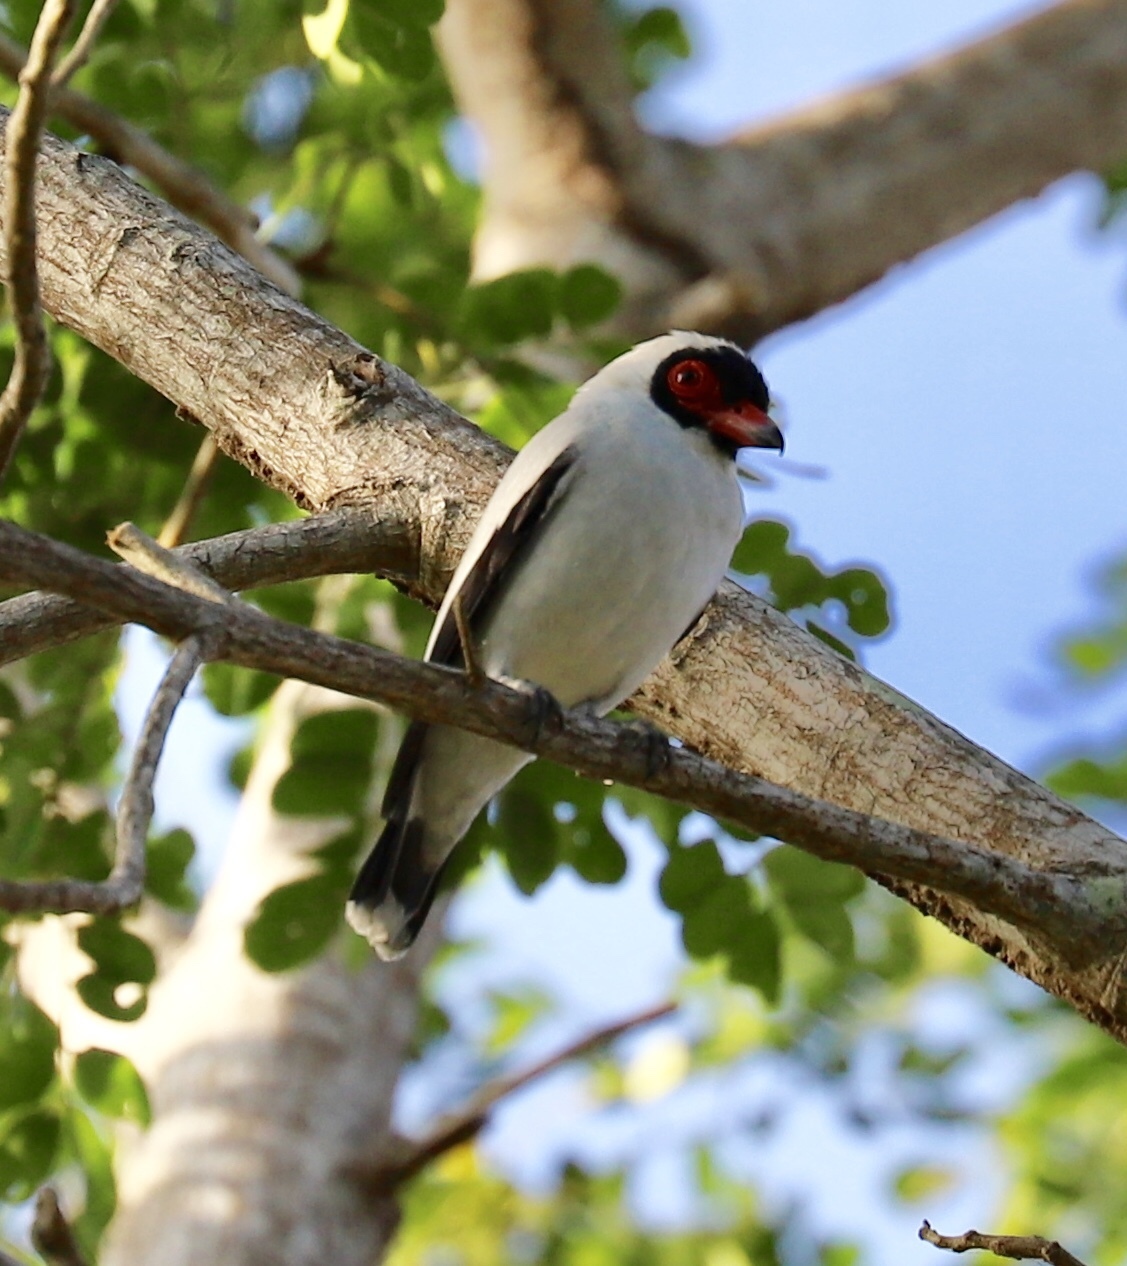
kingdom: Animalia
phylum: Chordata
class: Aves
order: Passeriformes
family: Cotingidae
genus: Tityra
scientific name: Tityra semifasciata
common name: Masked tityra
